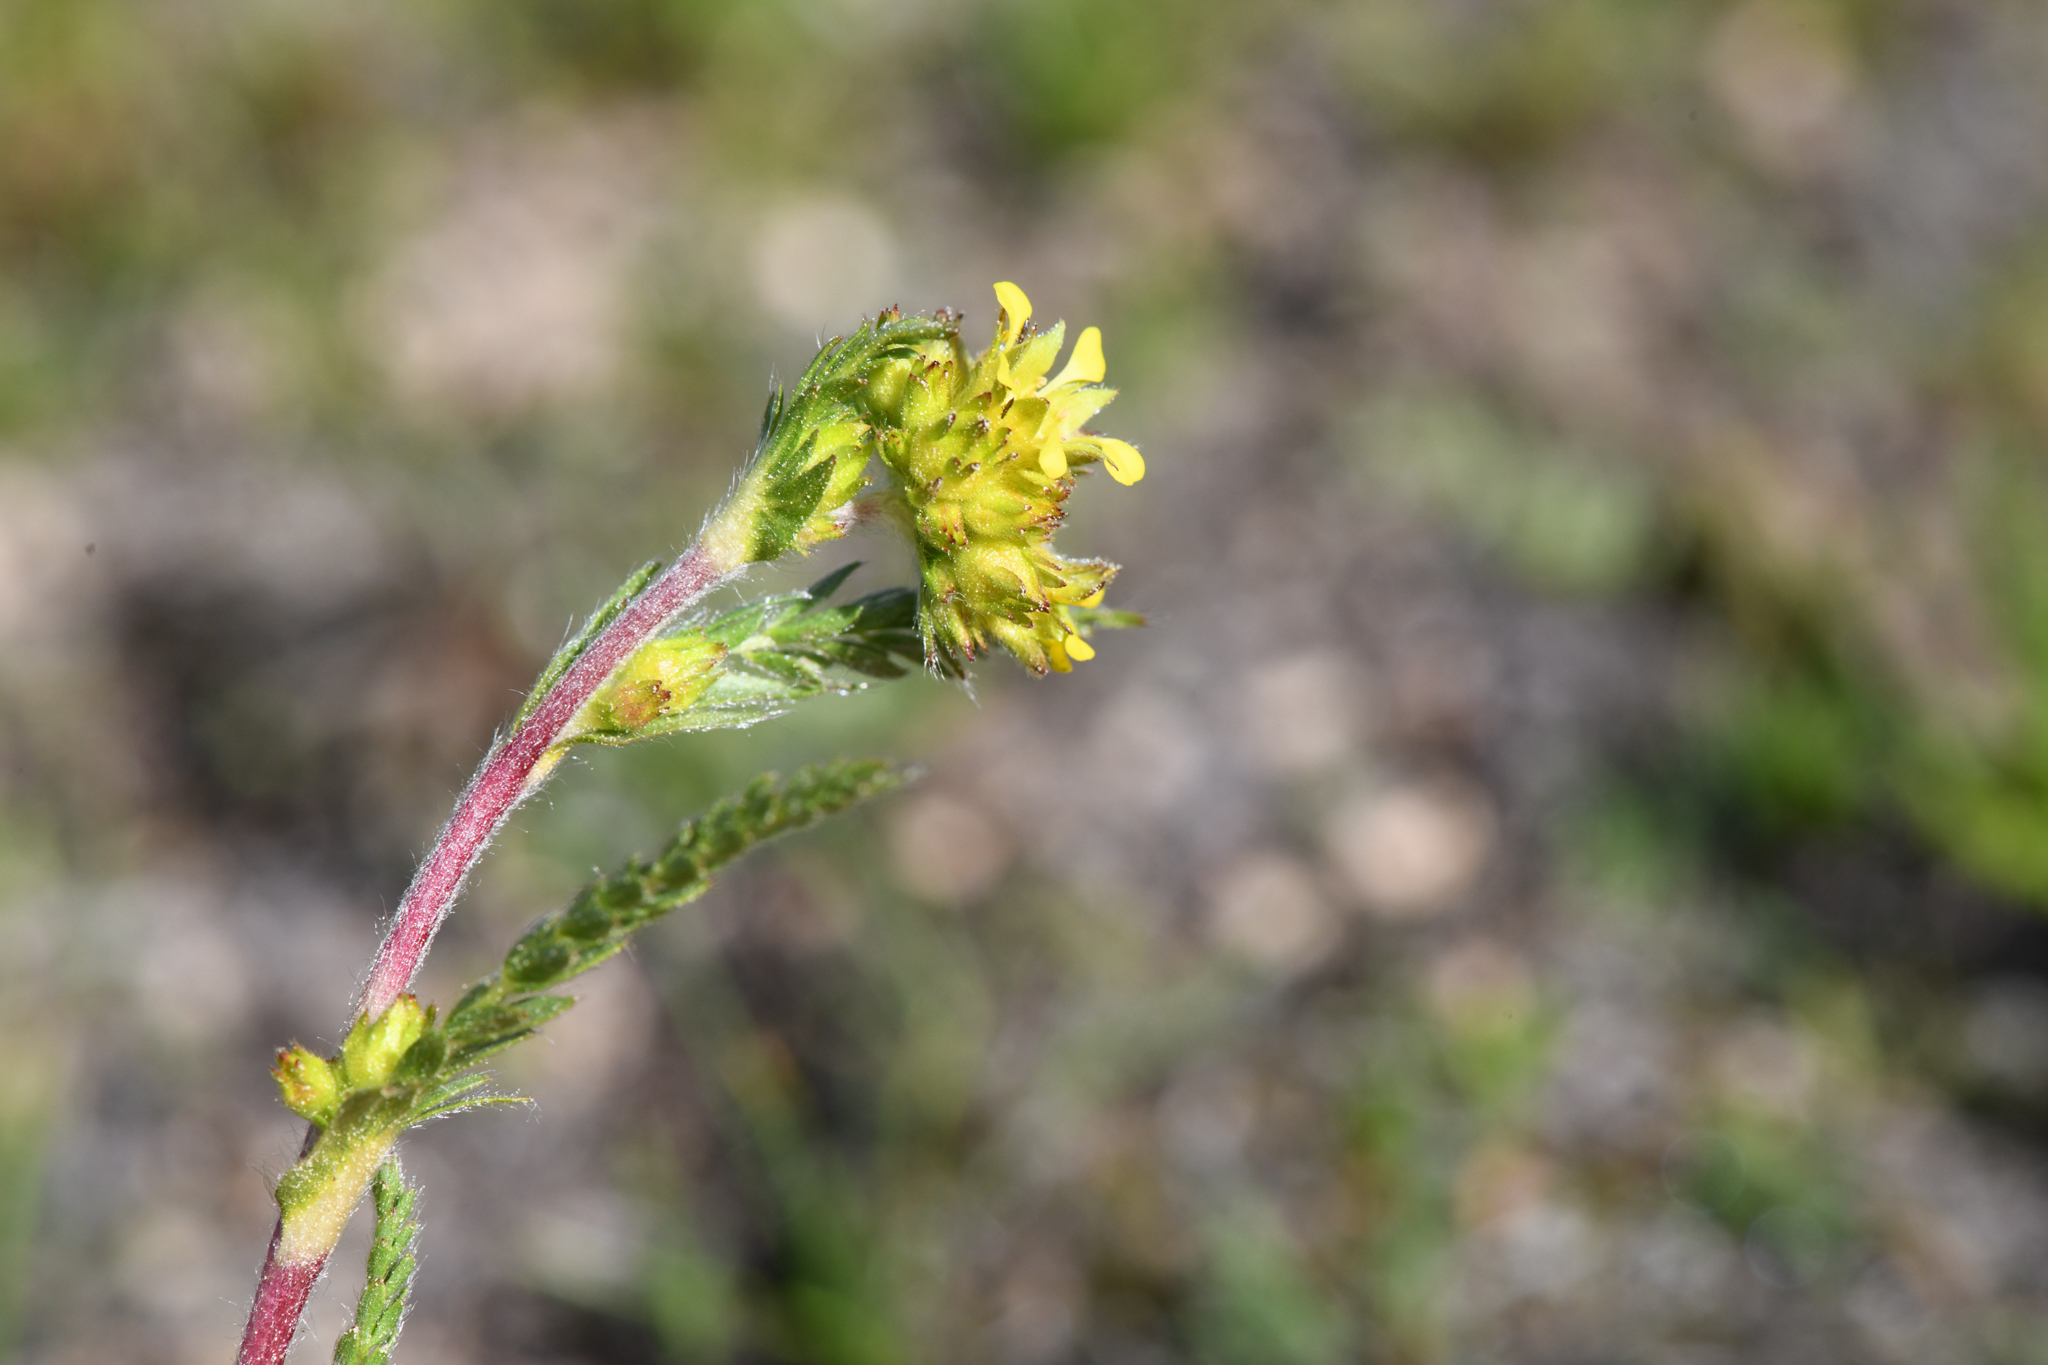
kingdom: Plantae
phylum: Tracheophyta
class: Magnoliopsida
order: Rosales
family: Rosaceae
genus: Potentilla
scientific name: Potentilla campestris
